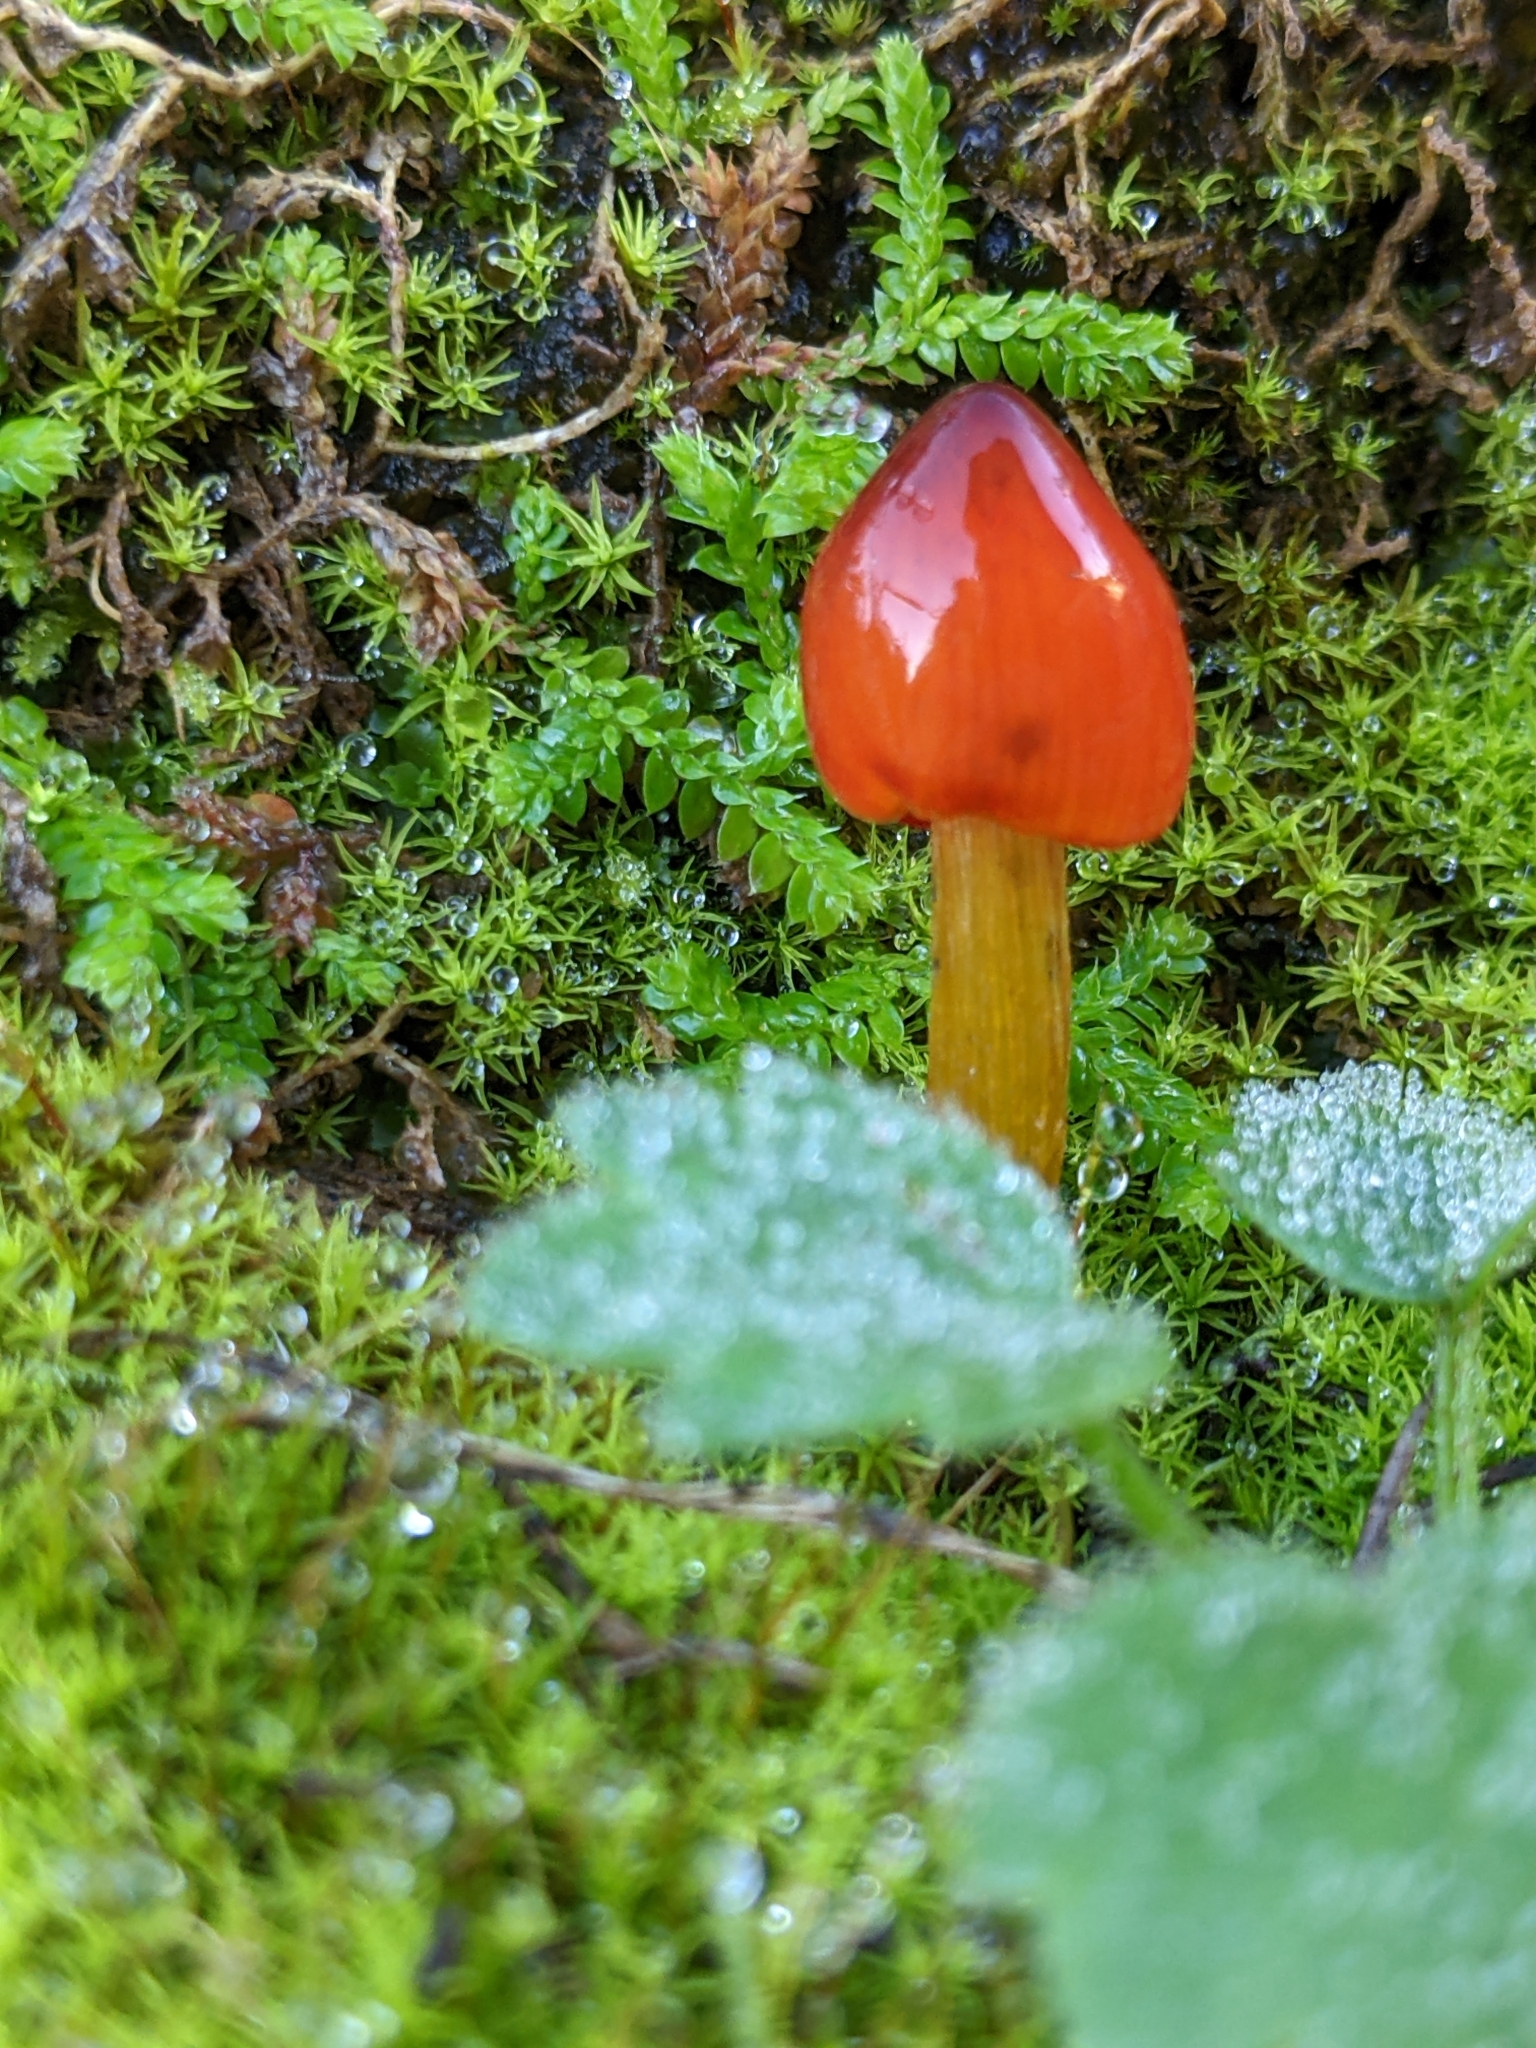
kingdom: Fungi
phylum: Basidiomycota
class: Agaricomycetes
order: Agaricales
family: Hygrophoraceae
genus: Hygrocybe
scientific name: Hygrocybe conica
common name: Blackening wax-cap
